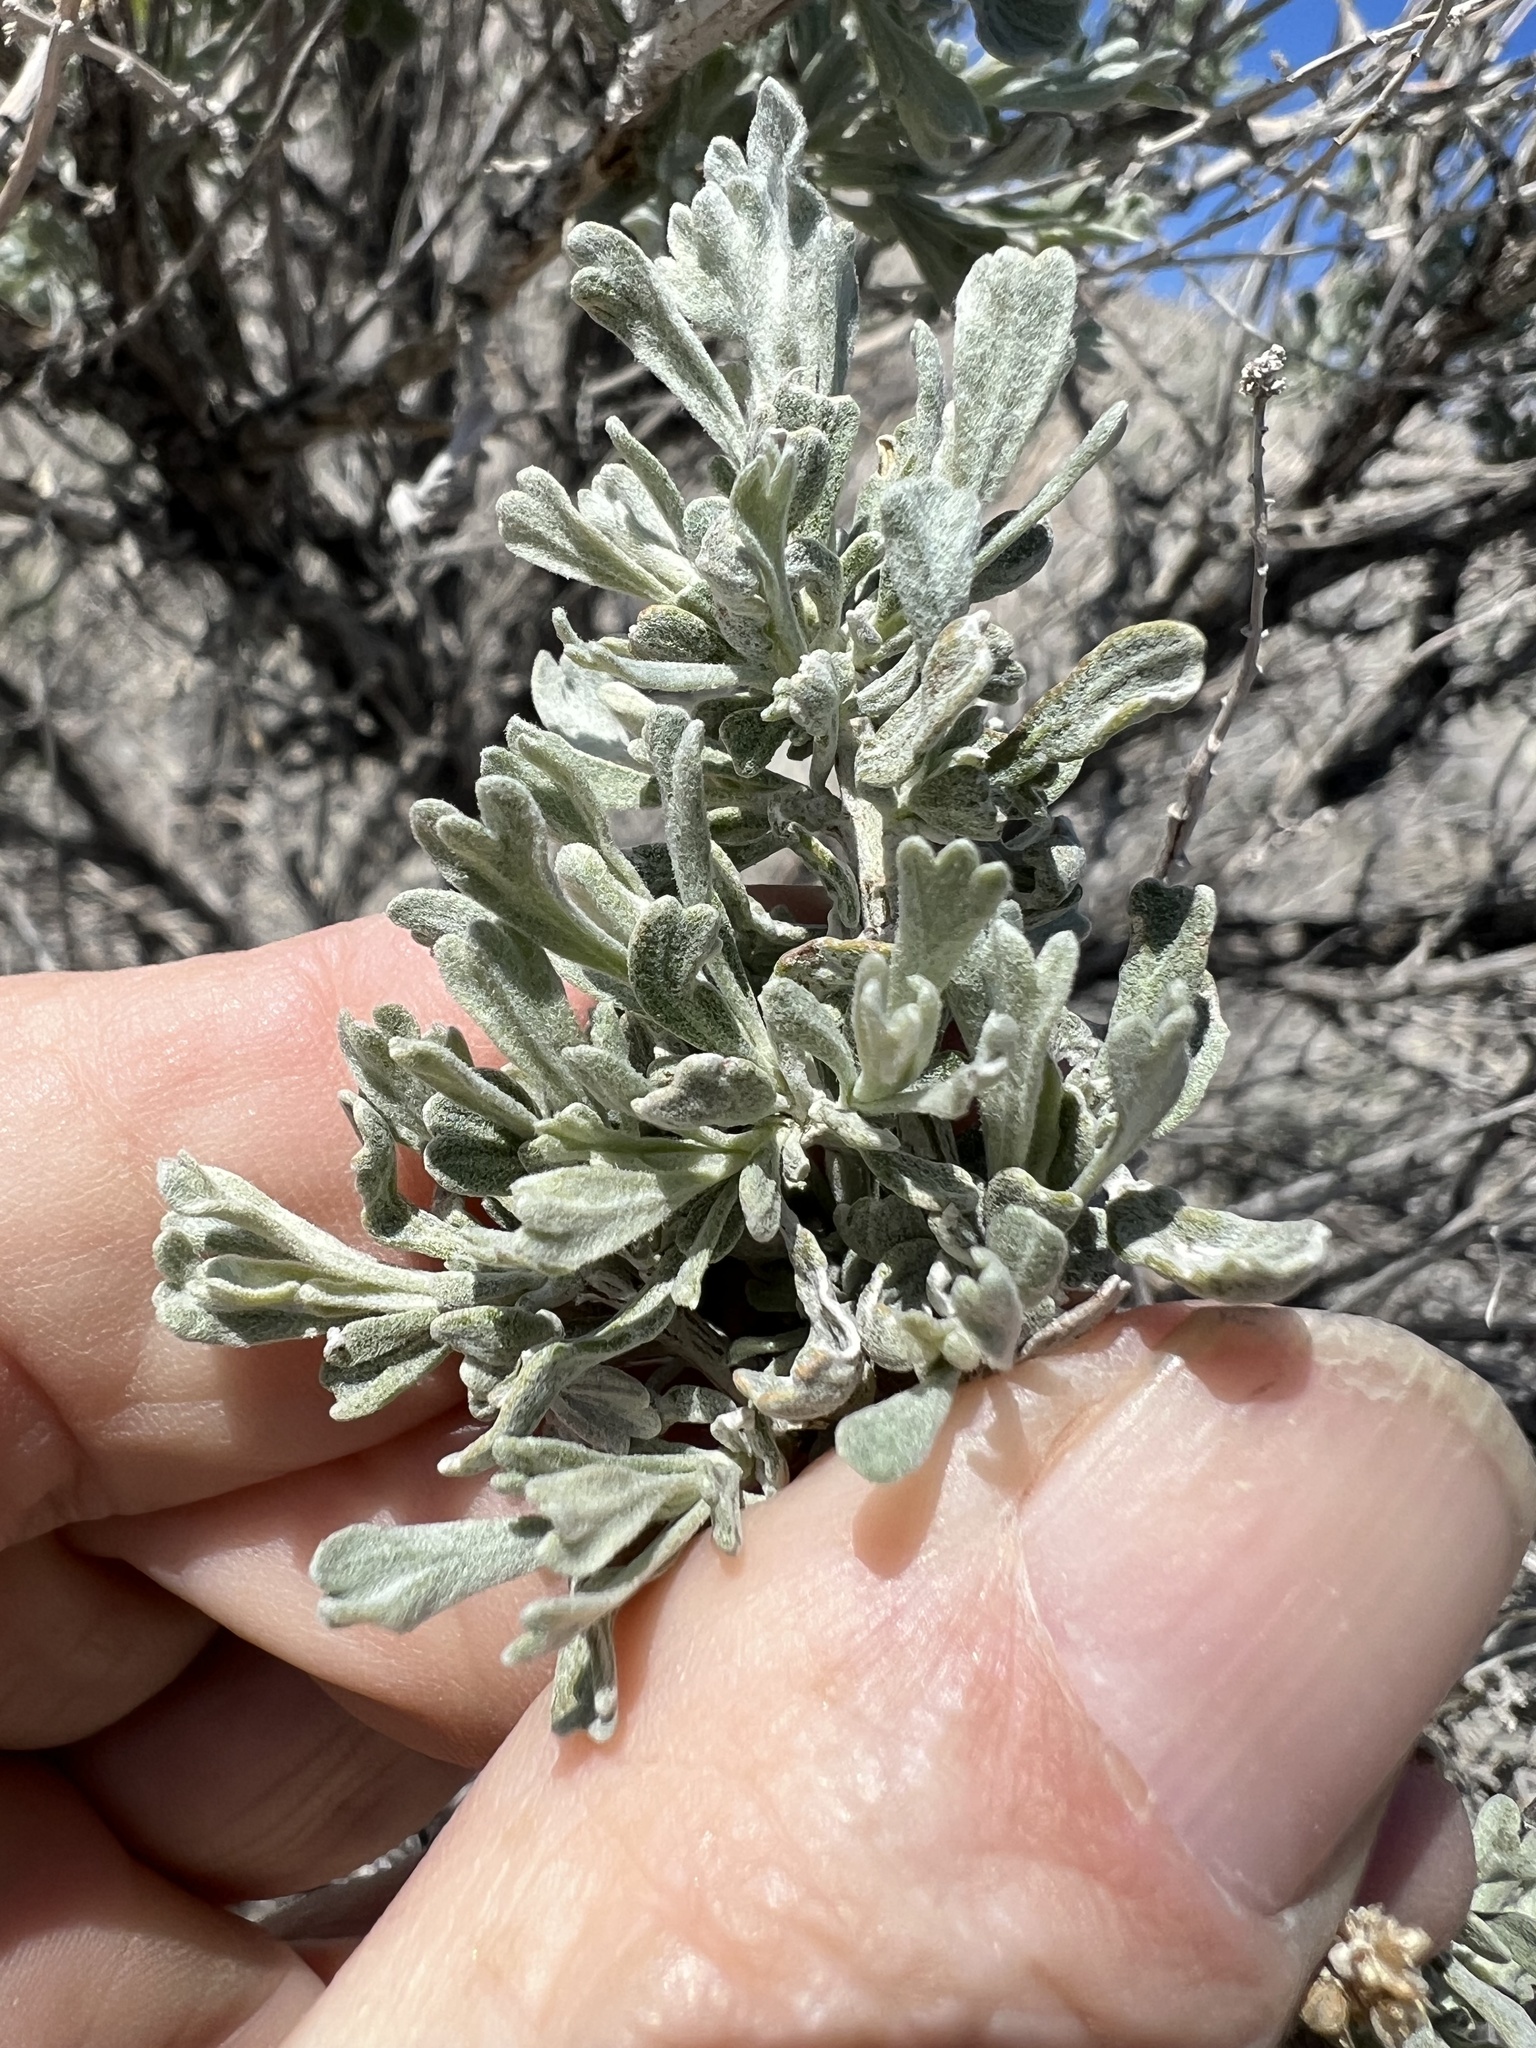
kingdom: Plantae
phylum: Tracheophyta
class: Magnoliopsida
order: Asterales
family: Asteraceae
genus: Artemisia
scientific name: Artemisia tridentata
